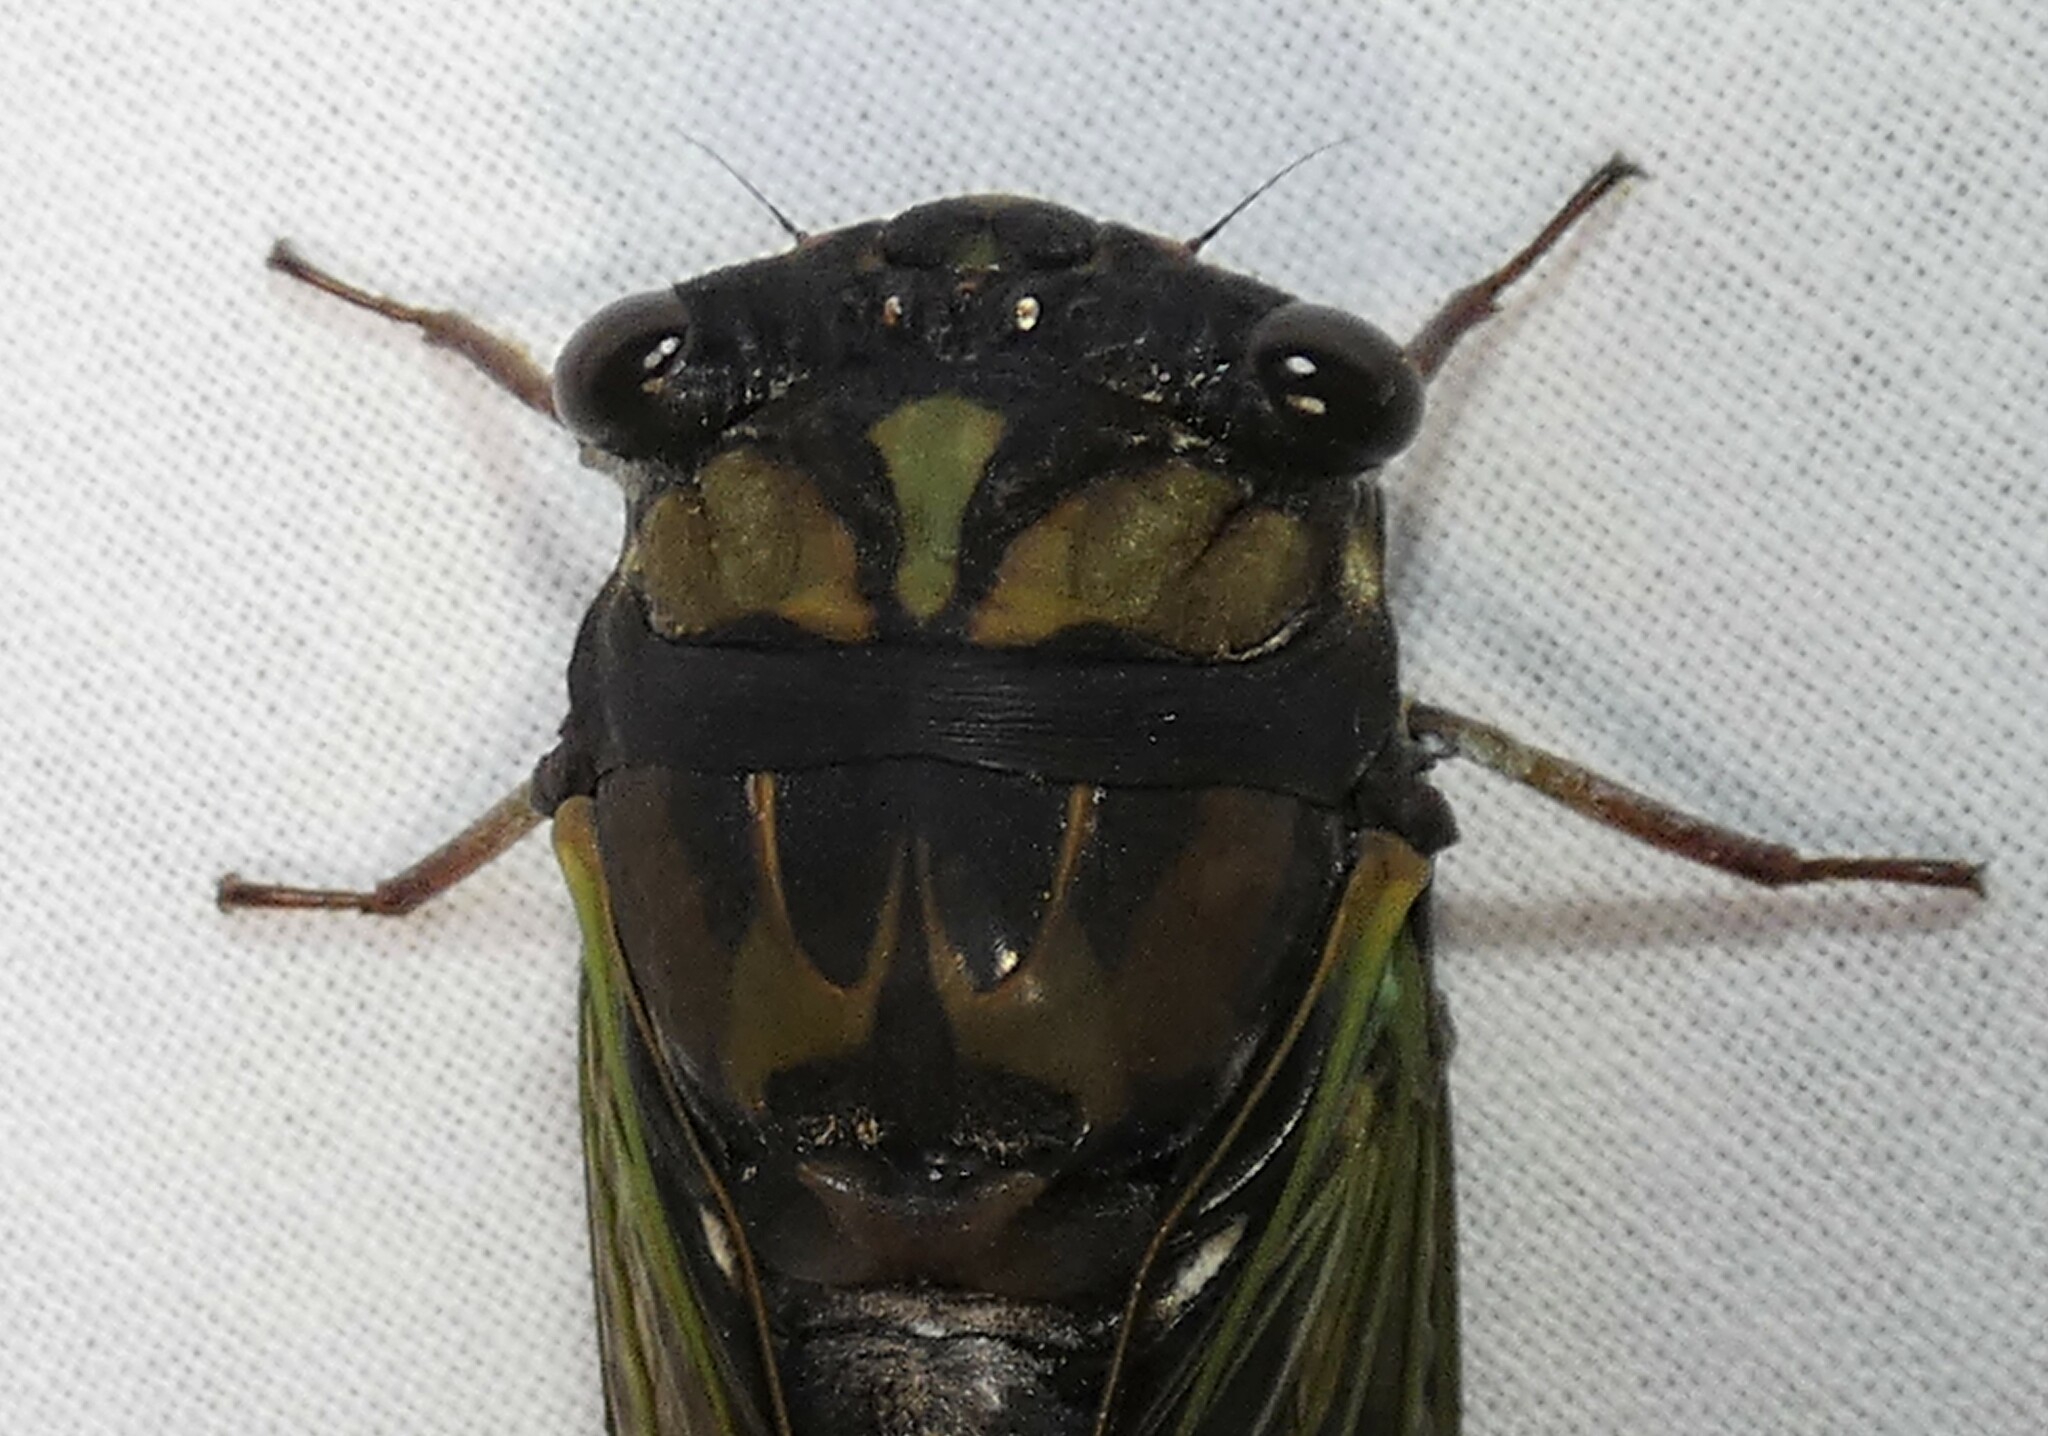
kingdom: Animalia
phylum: Arthropoda
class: Insecta
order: Hemiptera
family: Cicadidae
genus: Neotibicen
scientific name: Neotibicen lyricen
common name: Lyric cicada
